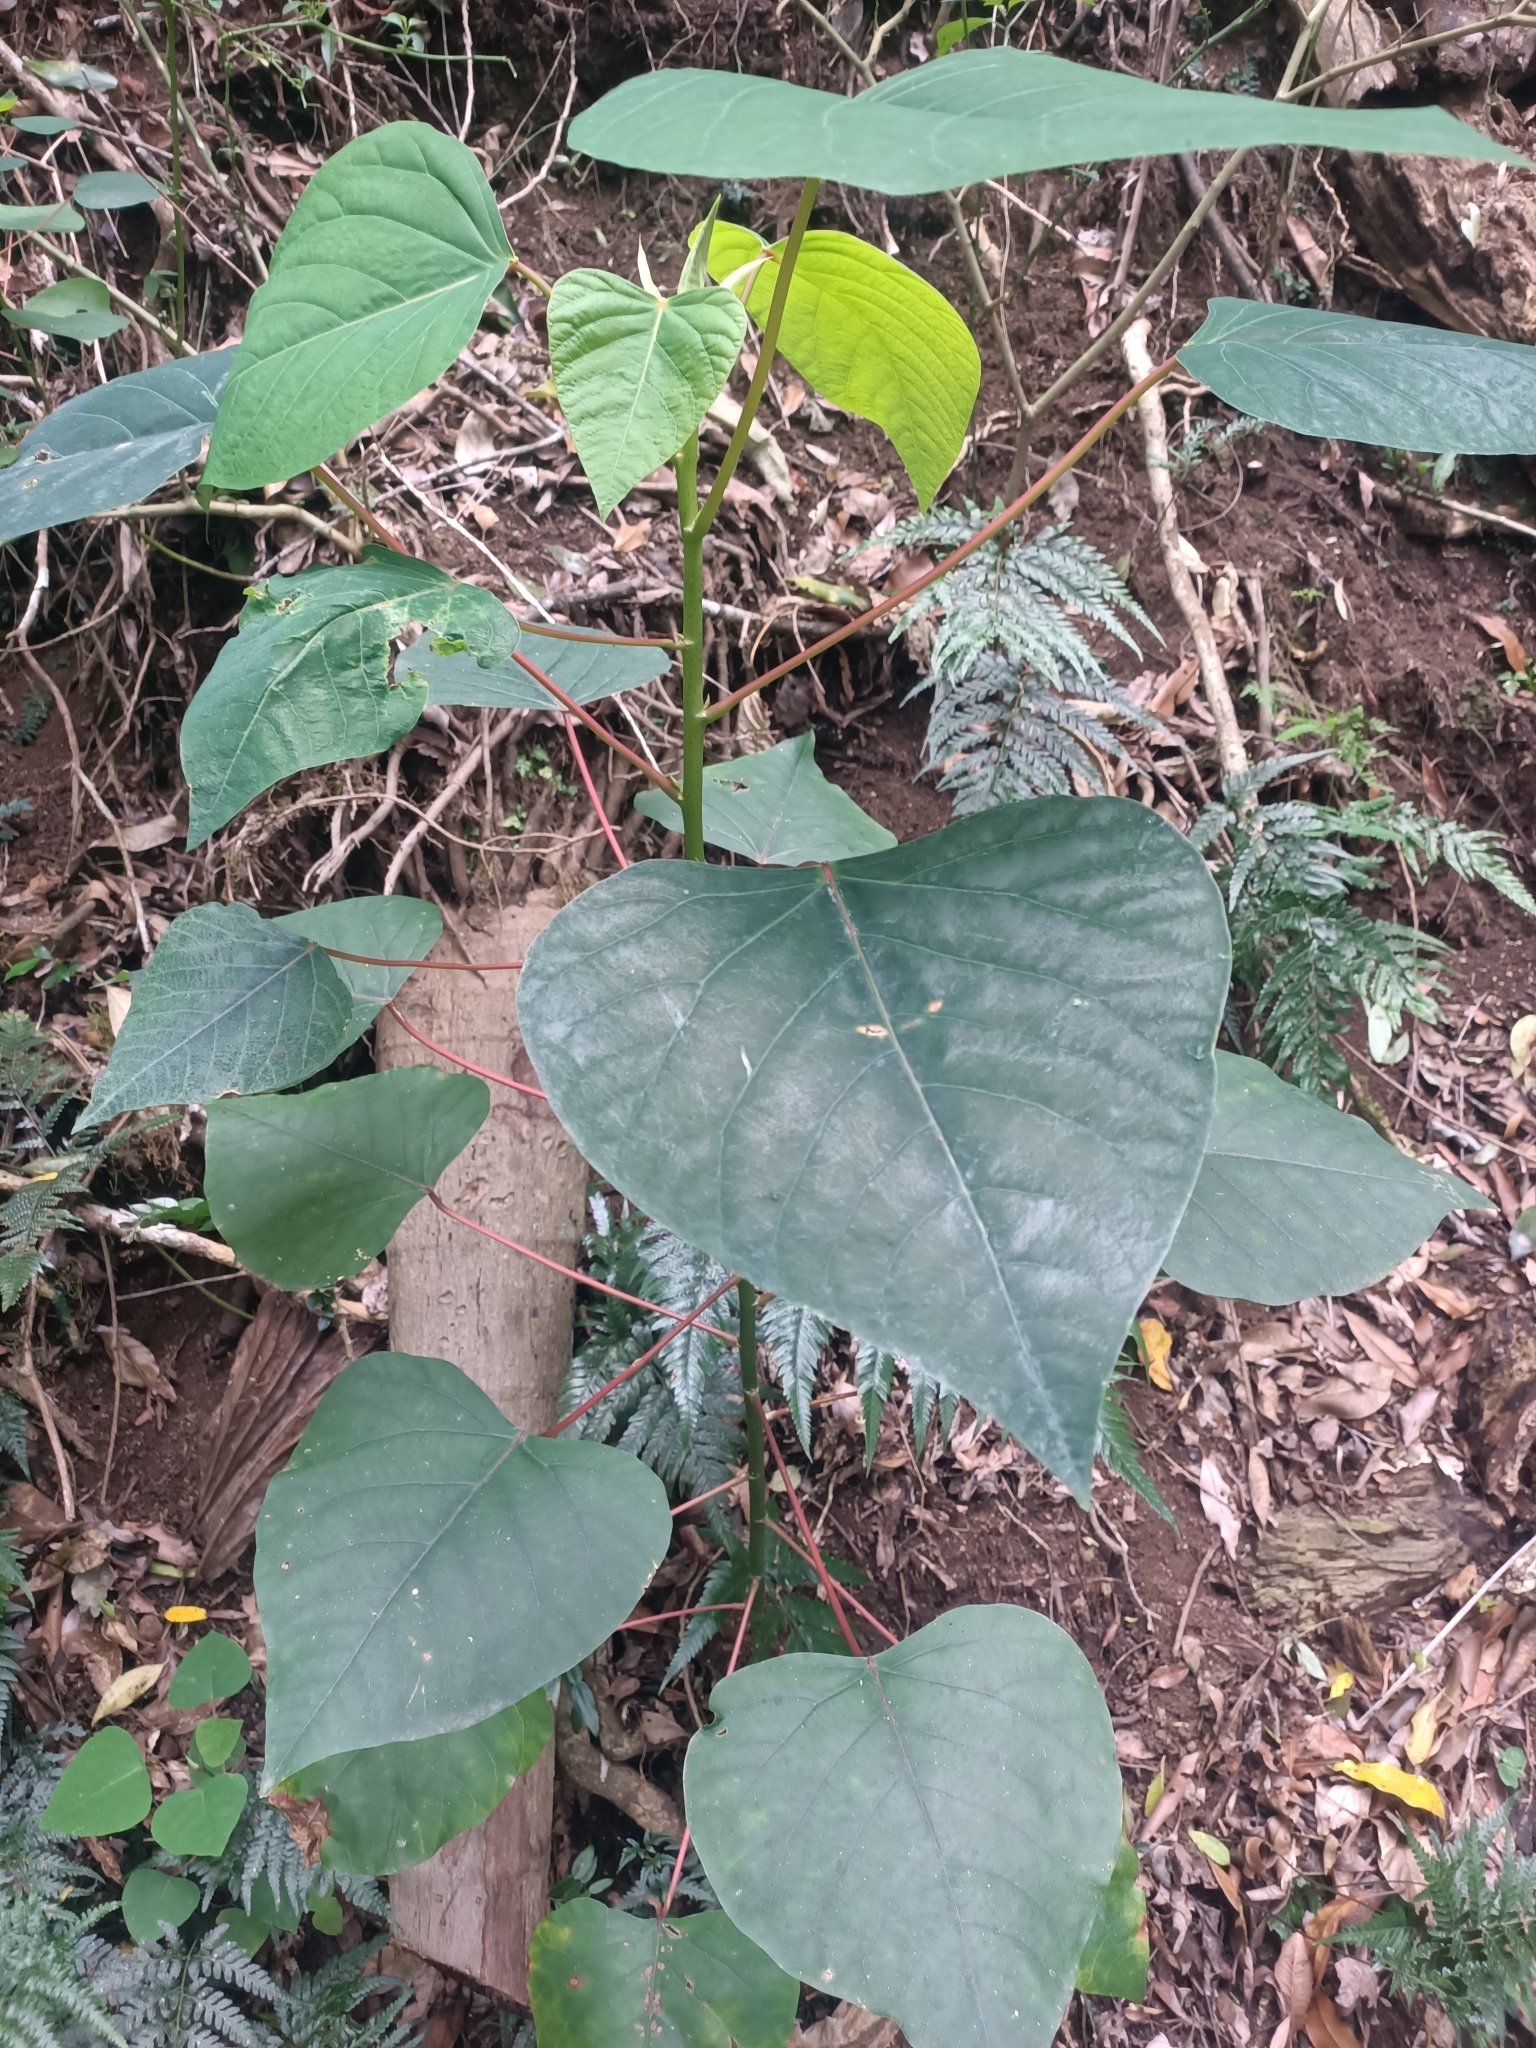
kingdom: Plantae
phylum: Tracheophyta
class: Magnoliopsida
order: Malpighiales
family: Euphorbiaceae
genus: Homalanthus
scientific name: Homalanthus populifolius
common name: Queensland poplar
